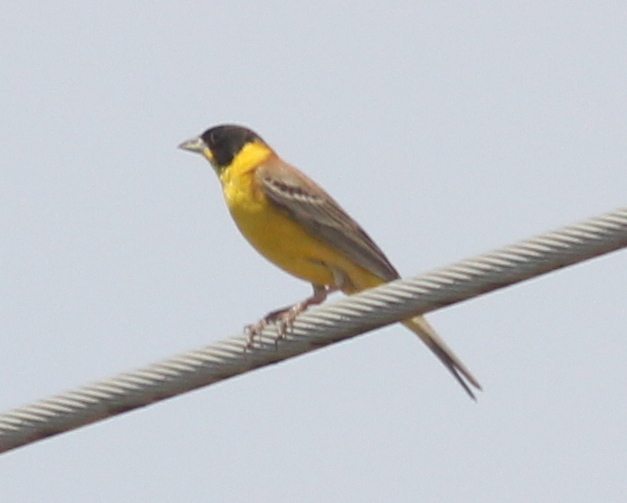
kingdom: Animalia
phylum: Chordata
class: Aves
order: Passeriformes
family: Emberizidae
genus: Emberiza
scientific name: Emberiza melanocephala
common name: Black-headed bunting
